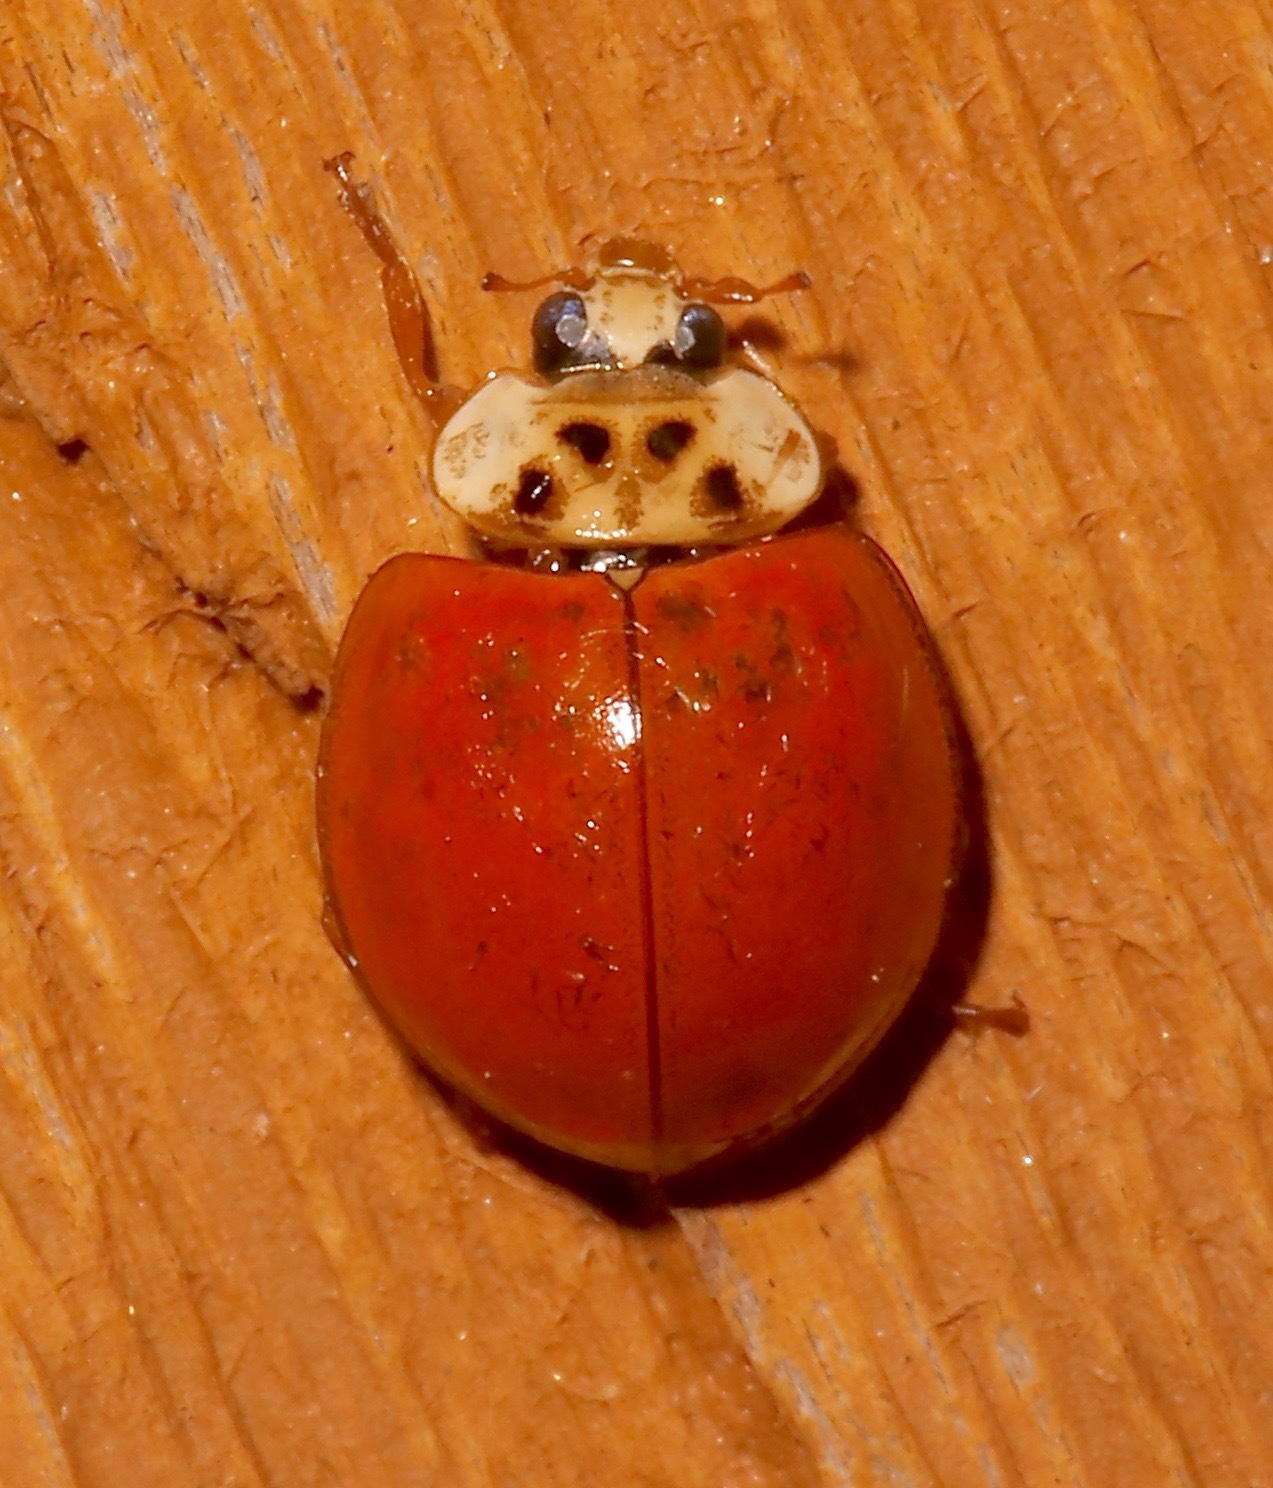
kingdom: Animalia
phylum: Arthropoda
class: Insecta
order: Coleoptera
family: Coccinellidae
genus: Harmonia
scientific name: Harmonia axyridis
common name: Harlequin ladybird
